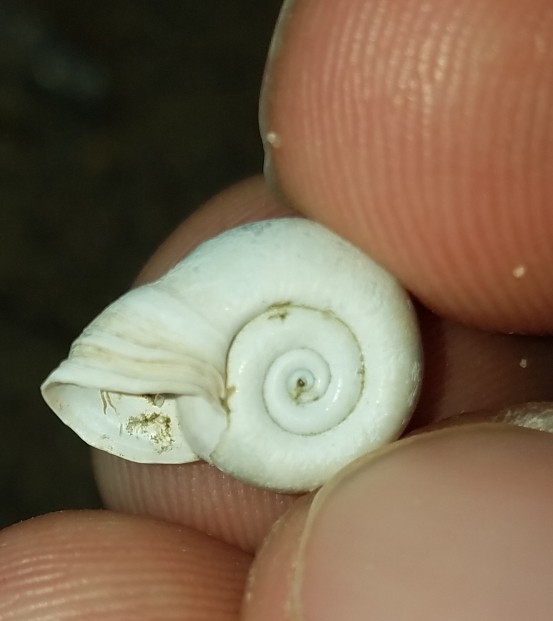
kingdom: Animalia
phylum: Mollusca
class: Gastropoda
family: Planorbidae
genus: Planorbella
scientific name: Planorbella campanulata
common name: Bellmouth ramshorn
